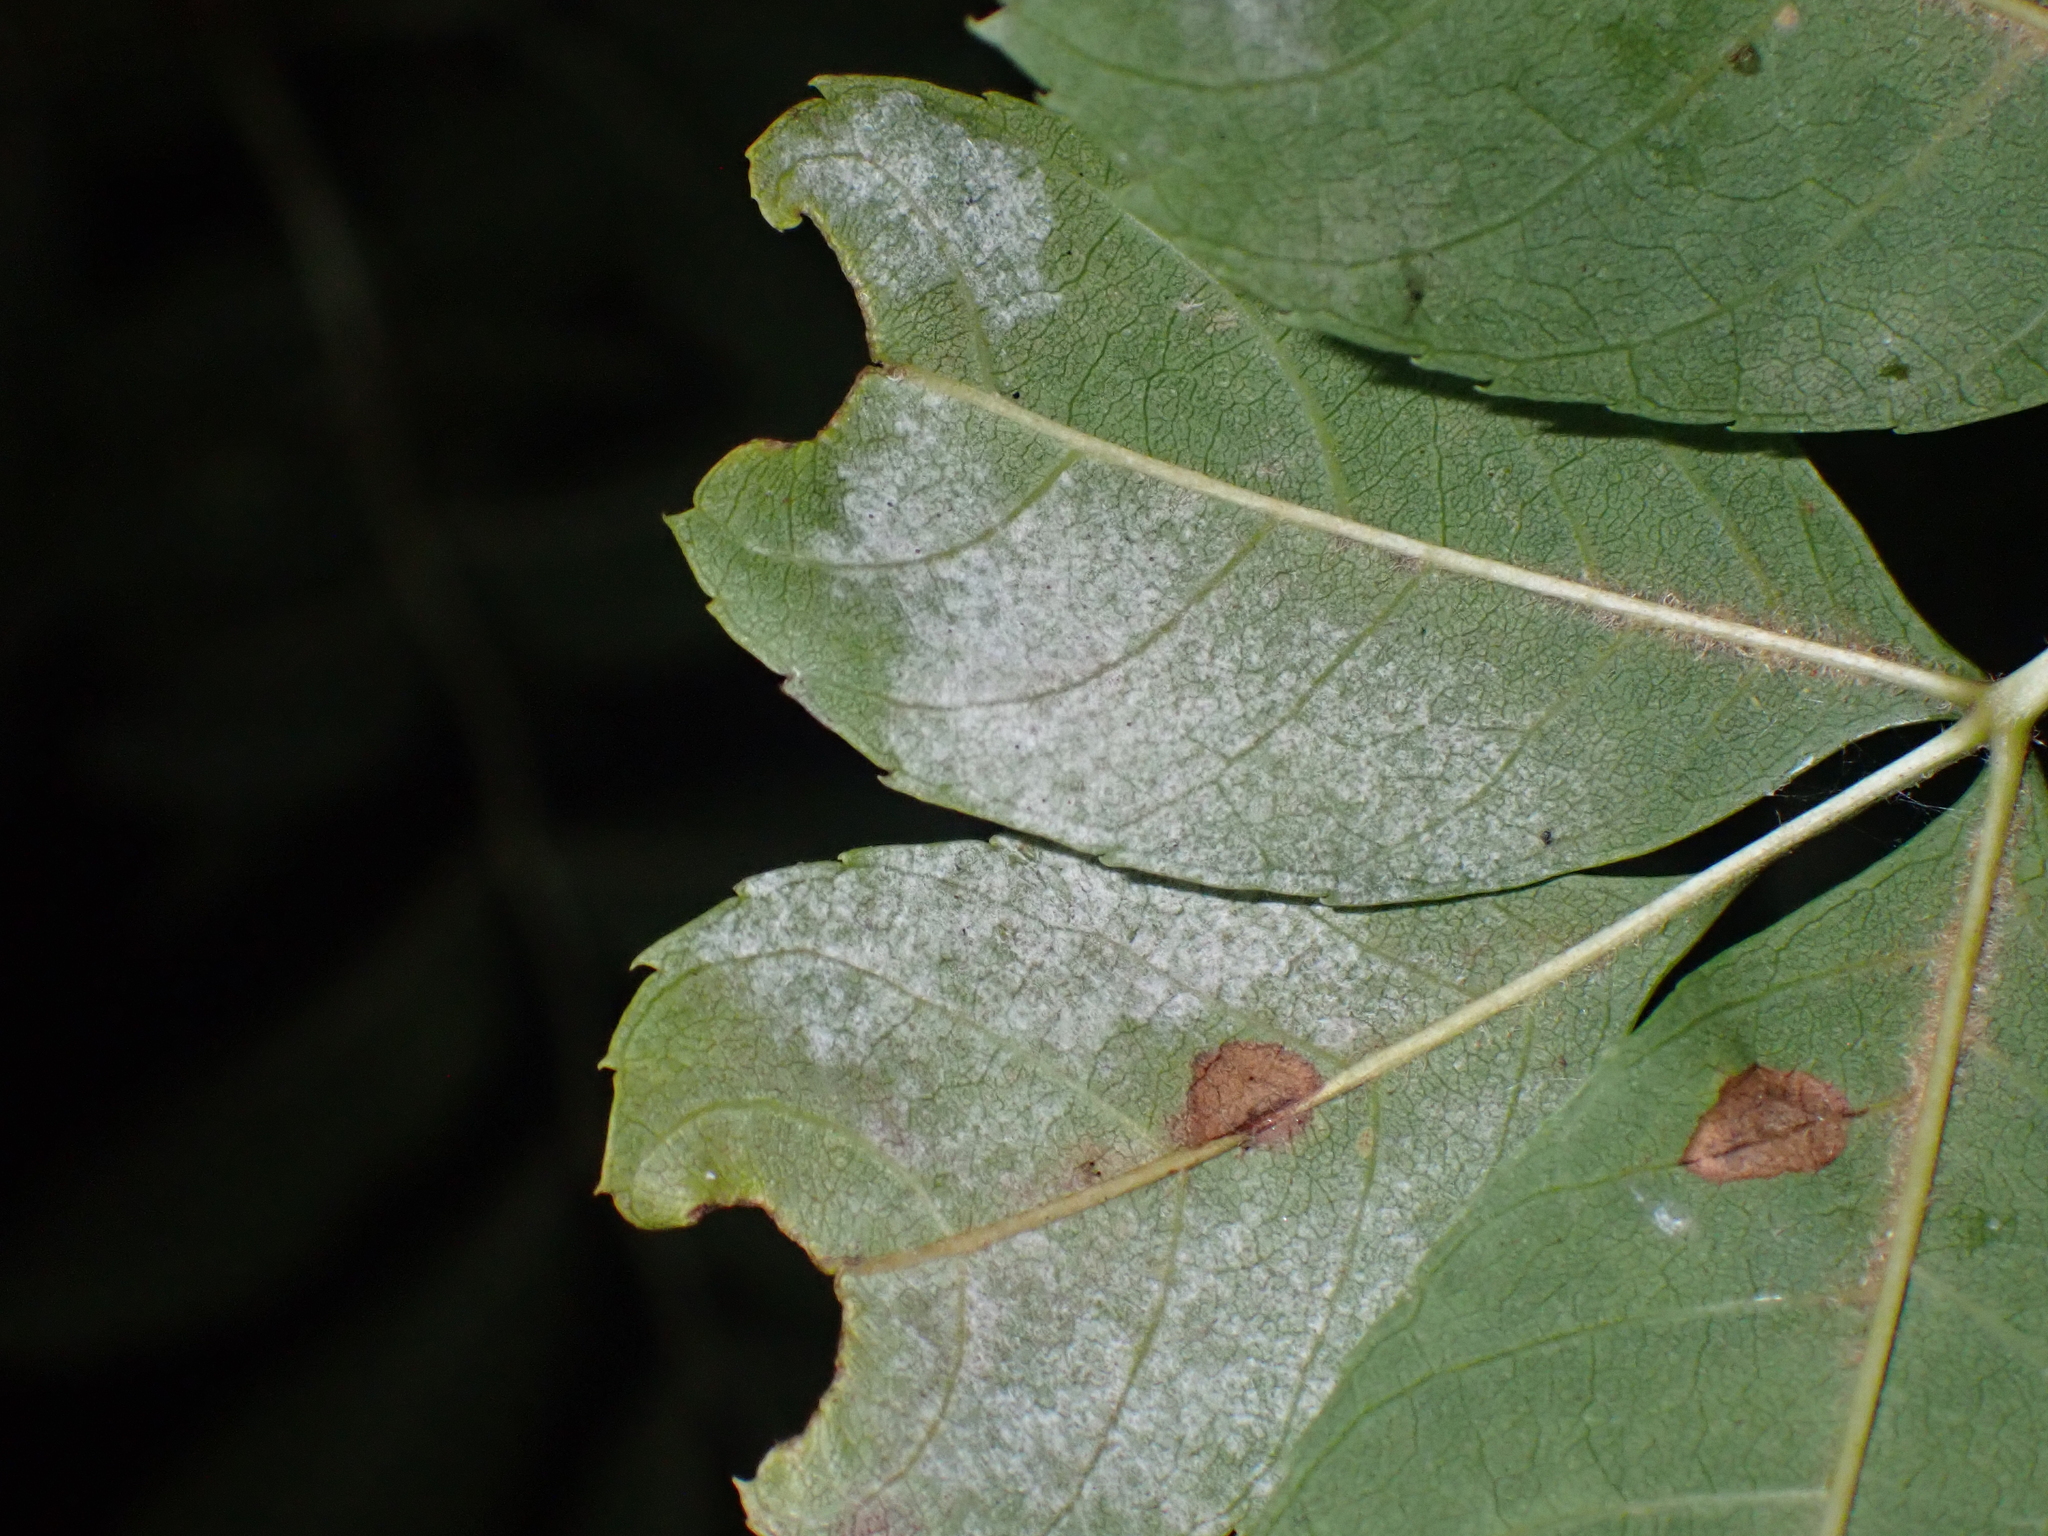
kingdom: Fungi
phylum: Ascomycota
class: Leotiomycetes
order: Helotiales
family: Erysiphaceae
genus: Phyllactinia
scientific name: Phyllactinia fraxini
